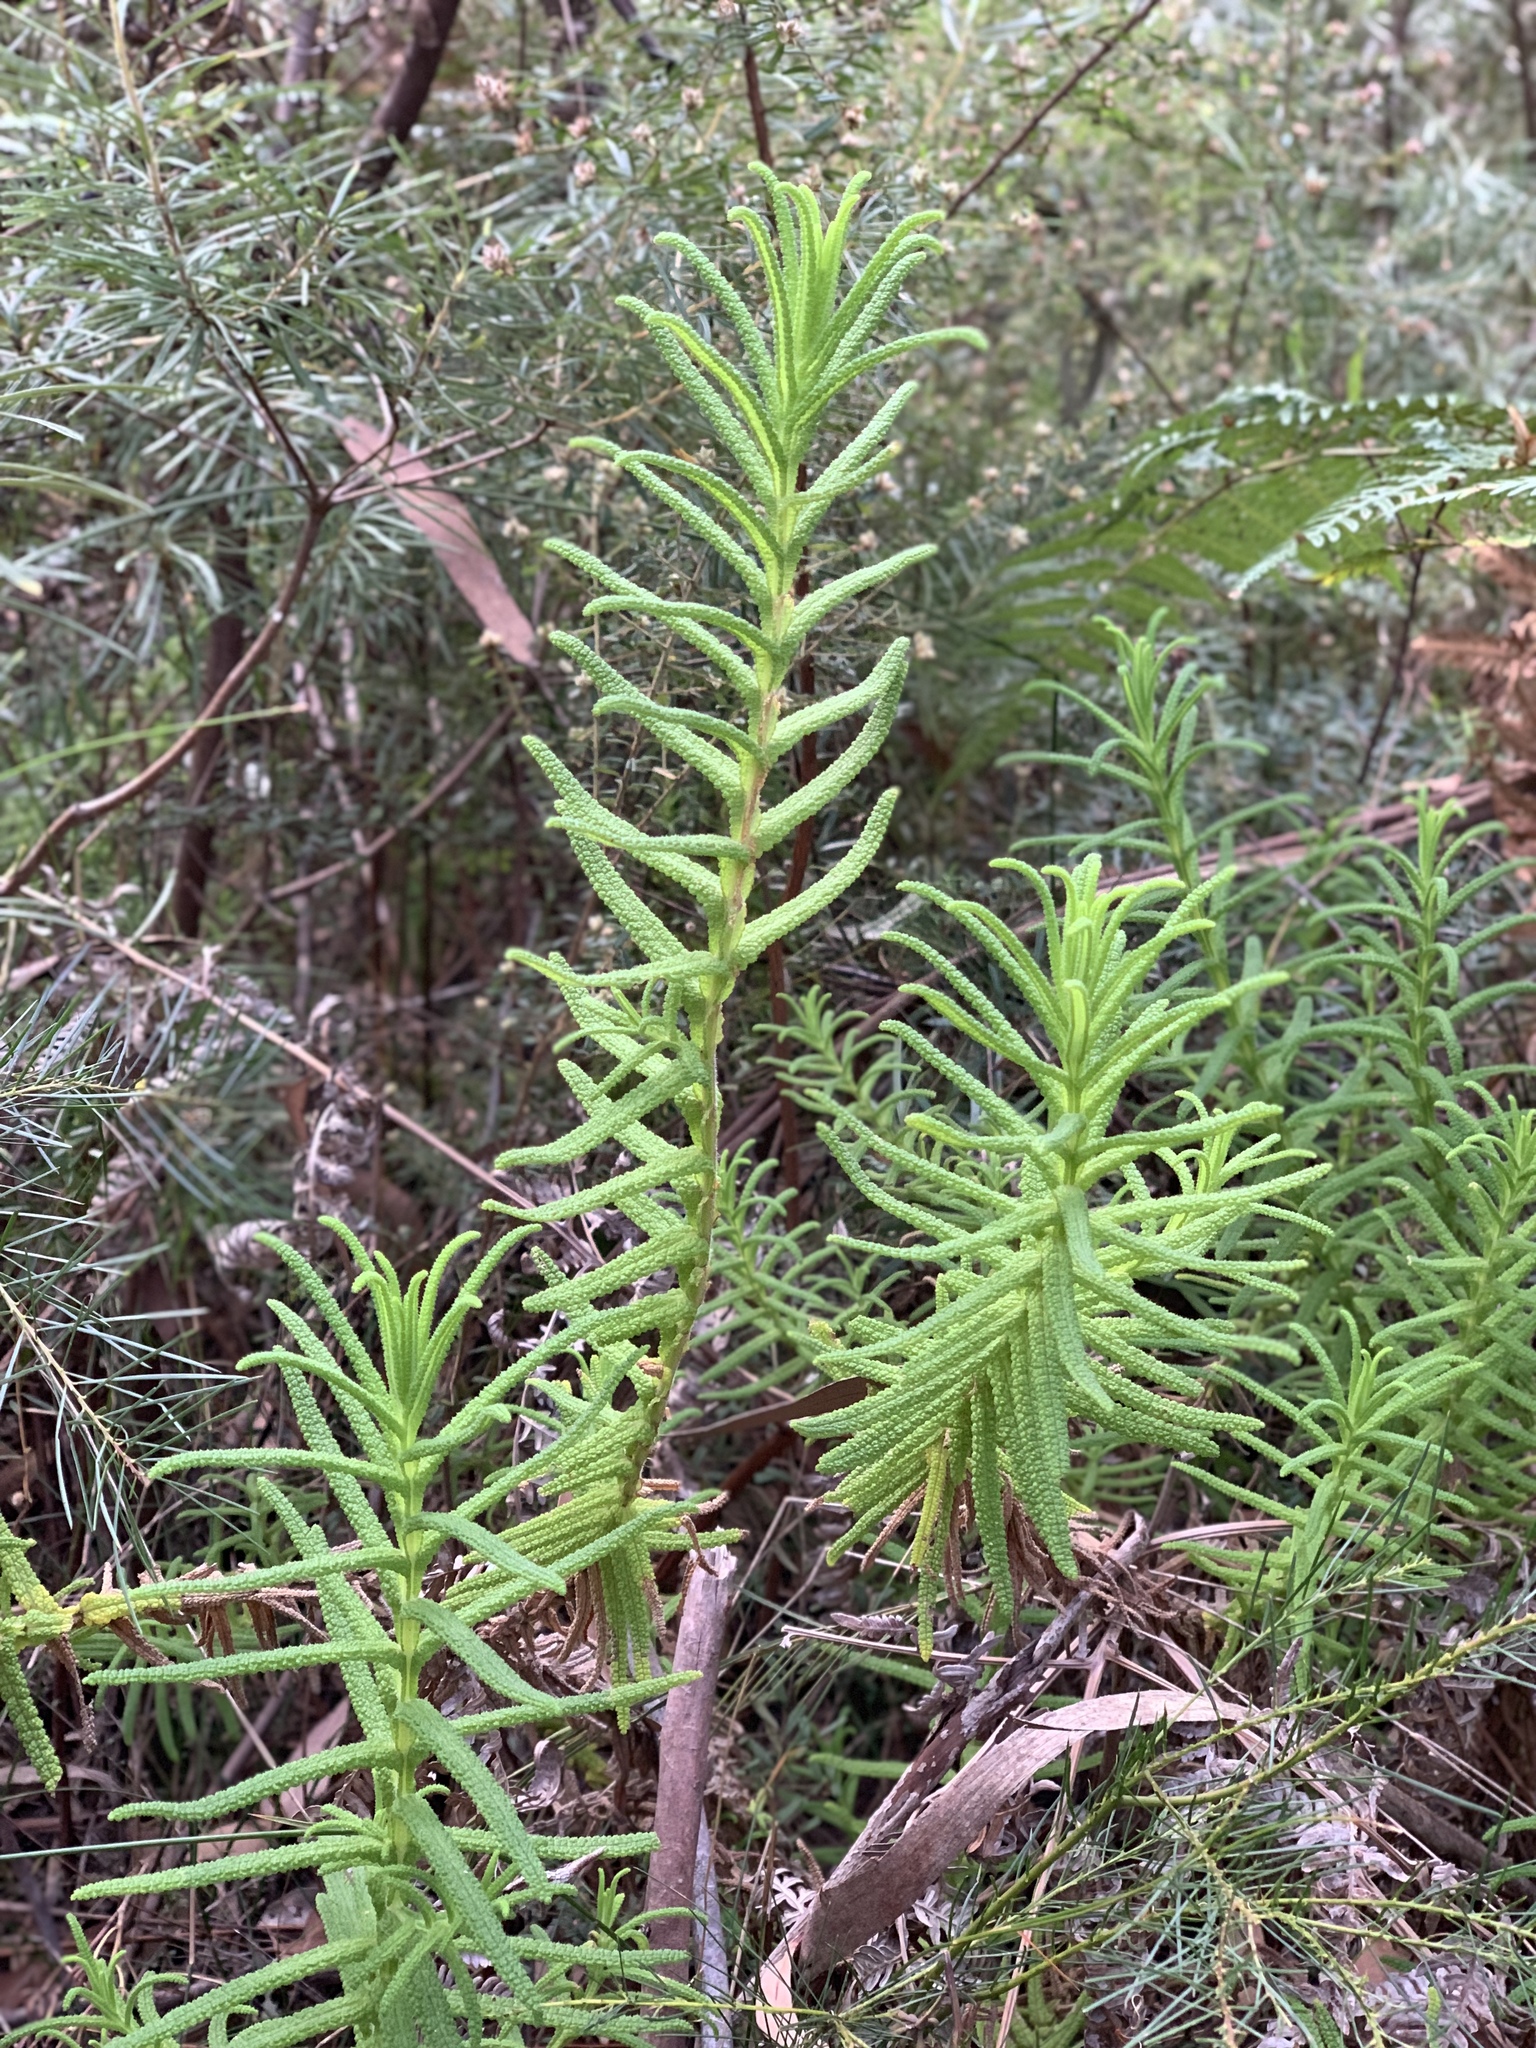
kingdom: Plantae
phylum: Tracheophyta
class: Magnoliopsida
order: Lamiales
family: Lamiaceae
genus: Chloanthes
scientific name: Chloanthes glandulosa
